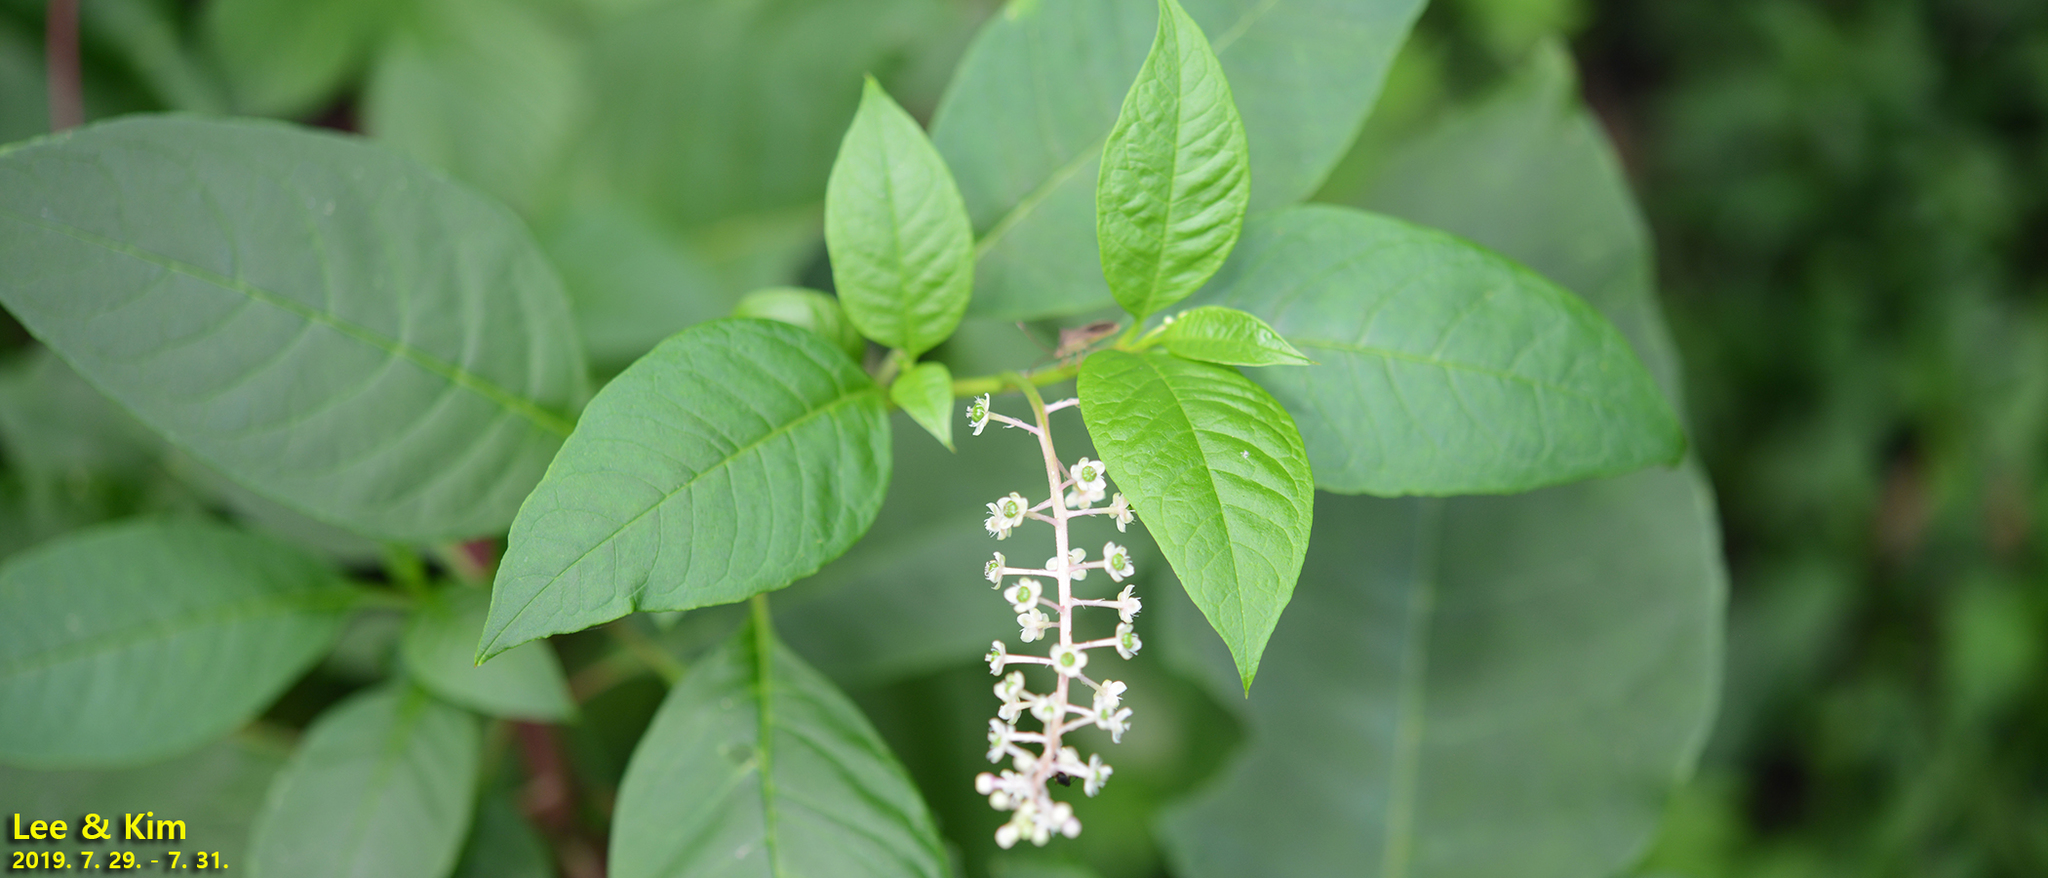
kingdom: Plantae
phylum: Tracheophyta
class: Magnoliopsida
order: Caryophyllales
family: Phytolaccaceae
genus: Phytolacca
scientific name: Phytolacca americana
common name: American pokeweed
